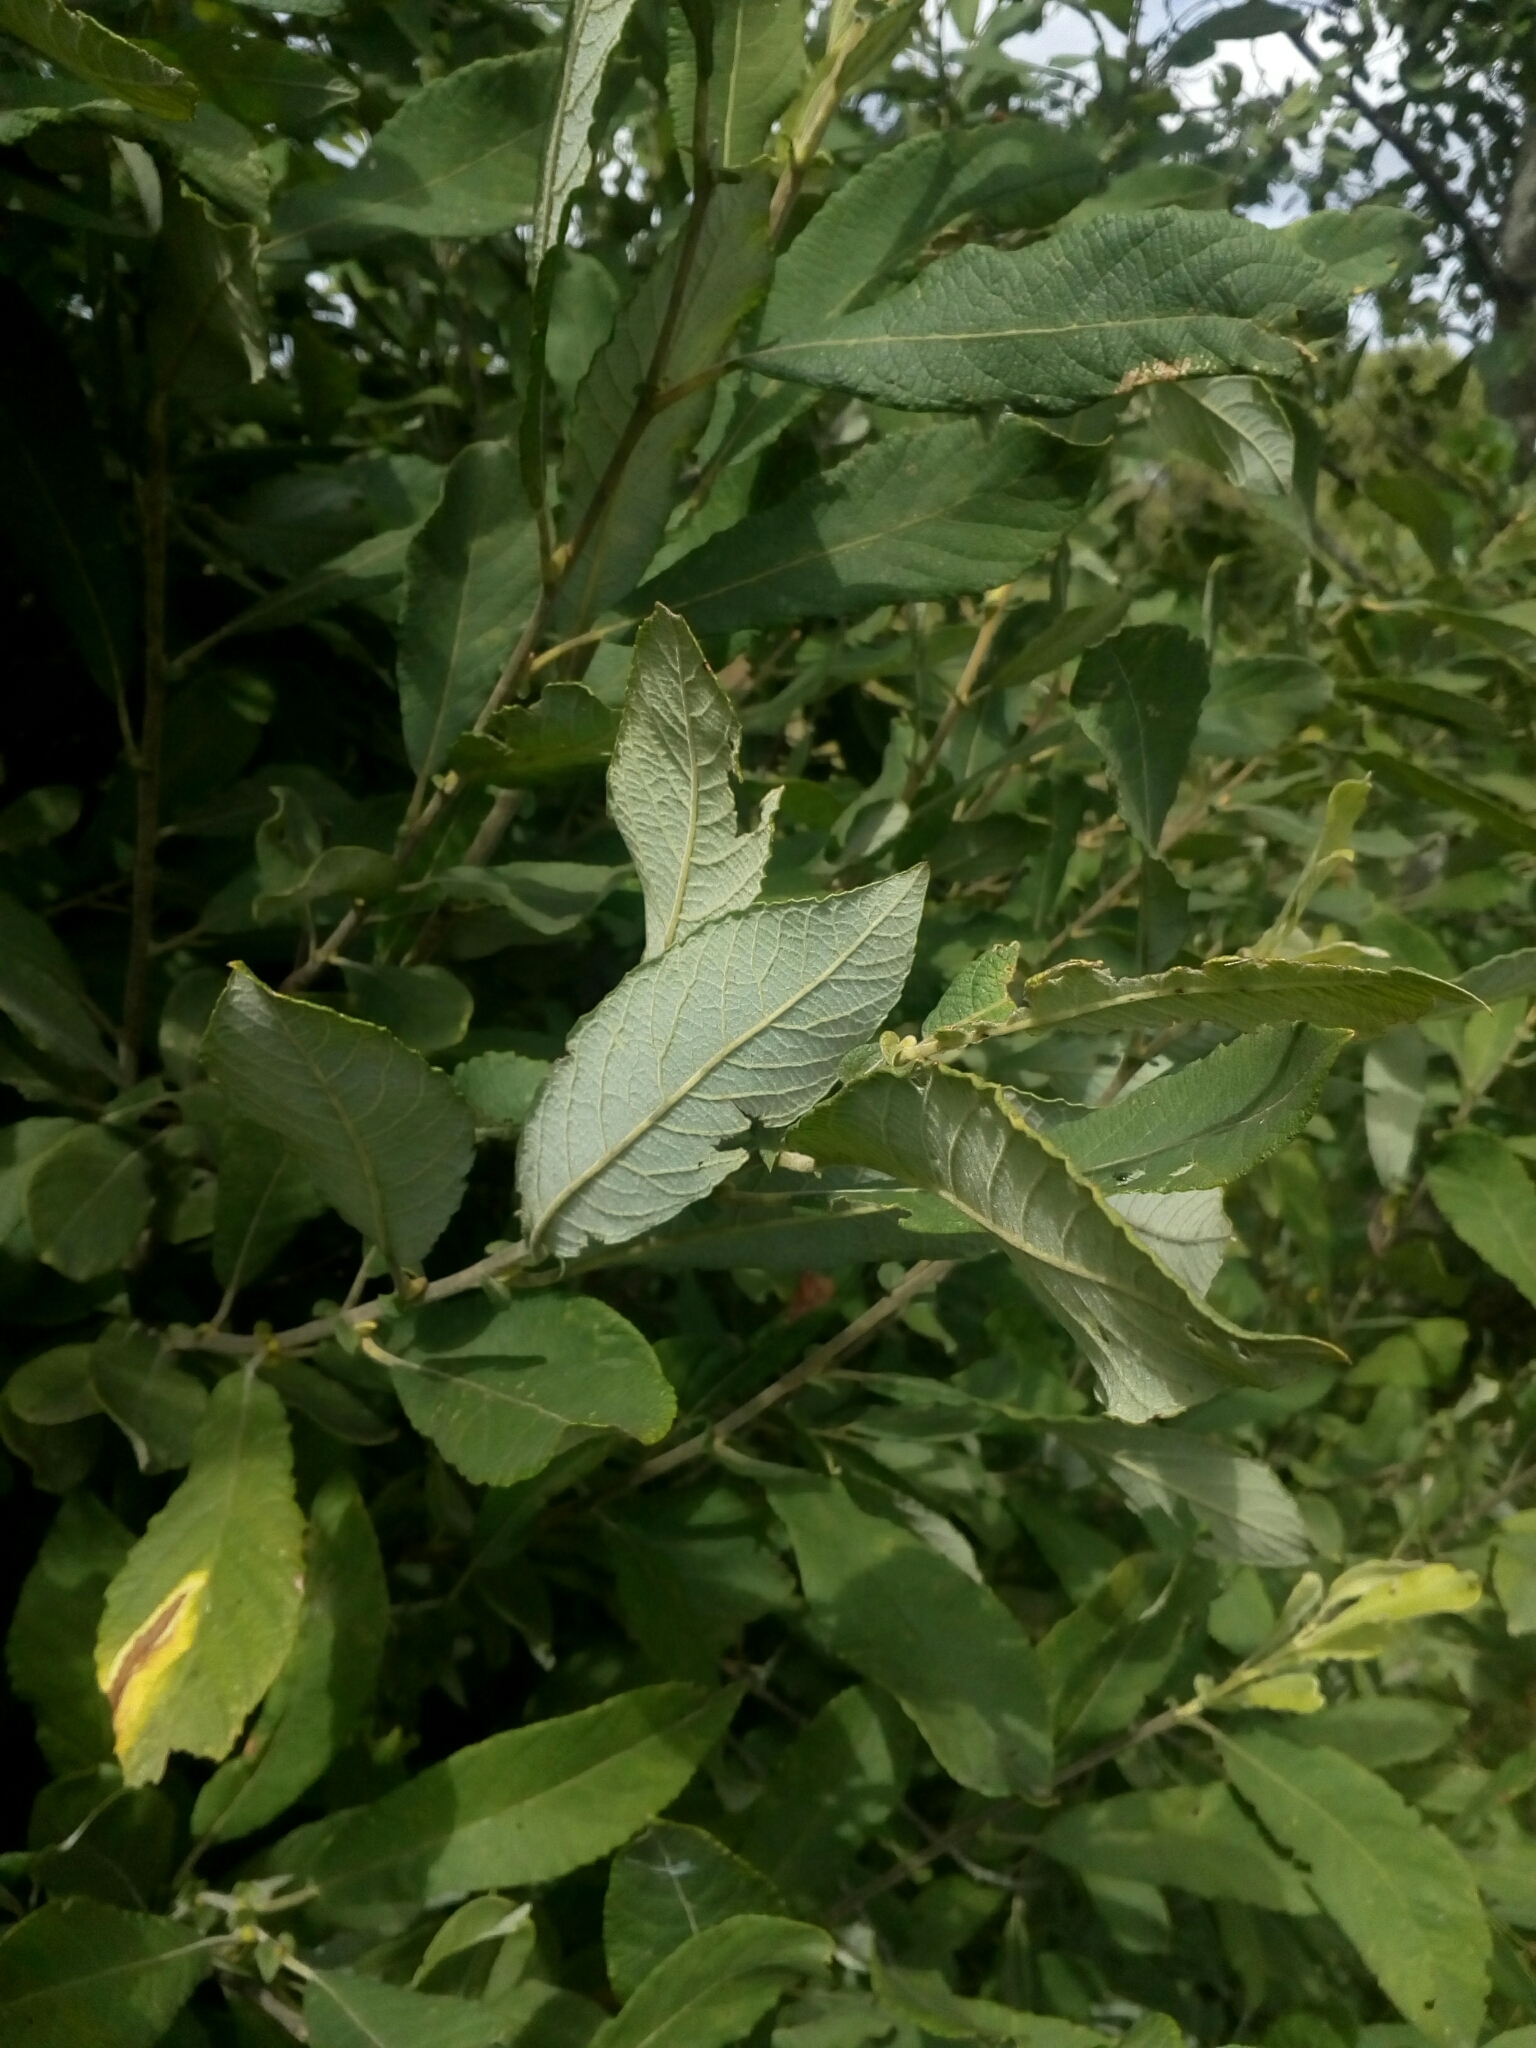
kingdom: Plantae
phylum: Tracheophyta
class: Magnoliopsida
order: Malpighiales
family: Salicaceae
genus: Salix
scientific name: Salix cinerea
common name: Common sallow
